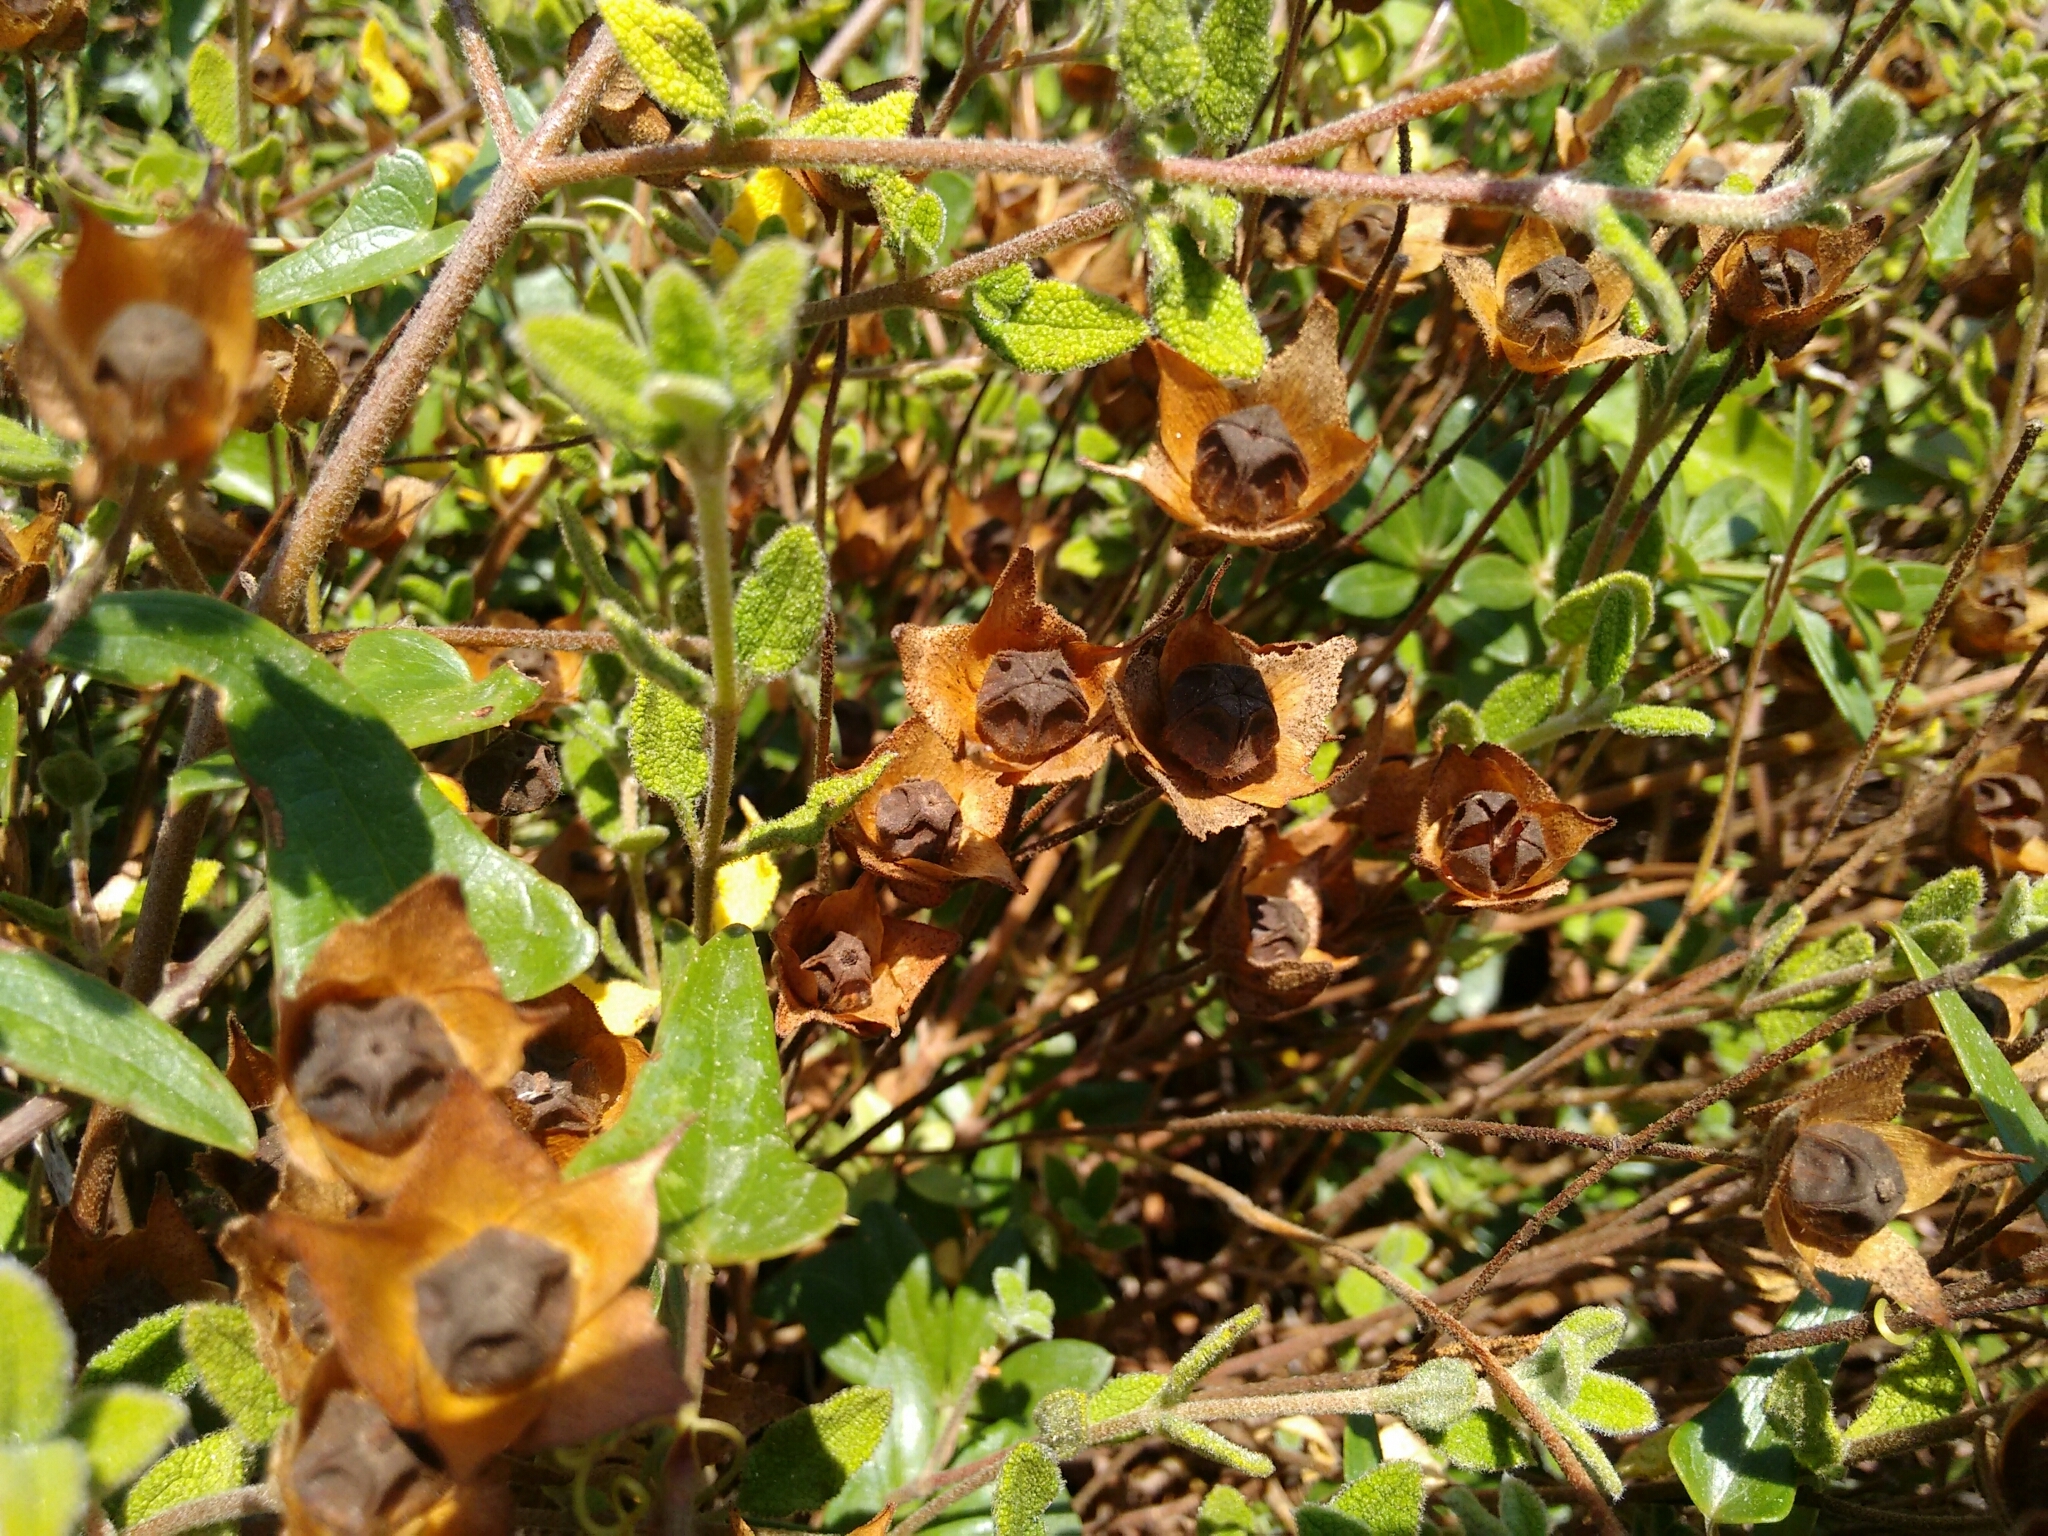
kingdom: Plantae
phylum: Tracheophyta
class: Magnoliopsida
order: Malvales
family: Cistaceae
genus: Cistus
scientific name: Cistus salviifolius
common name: Salvia cistus
